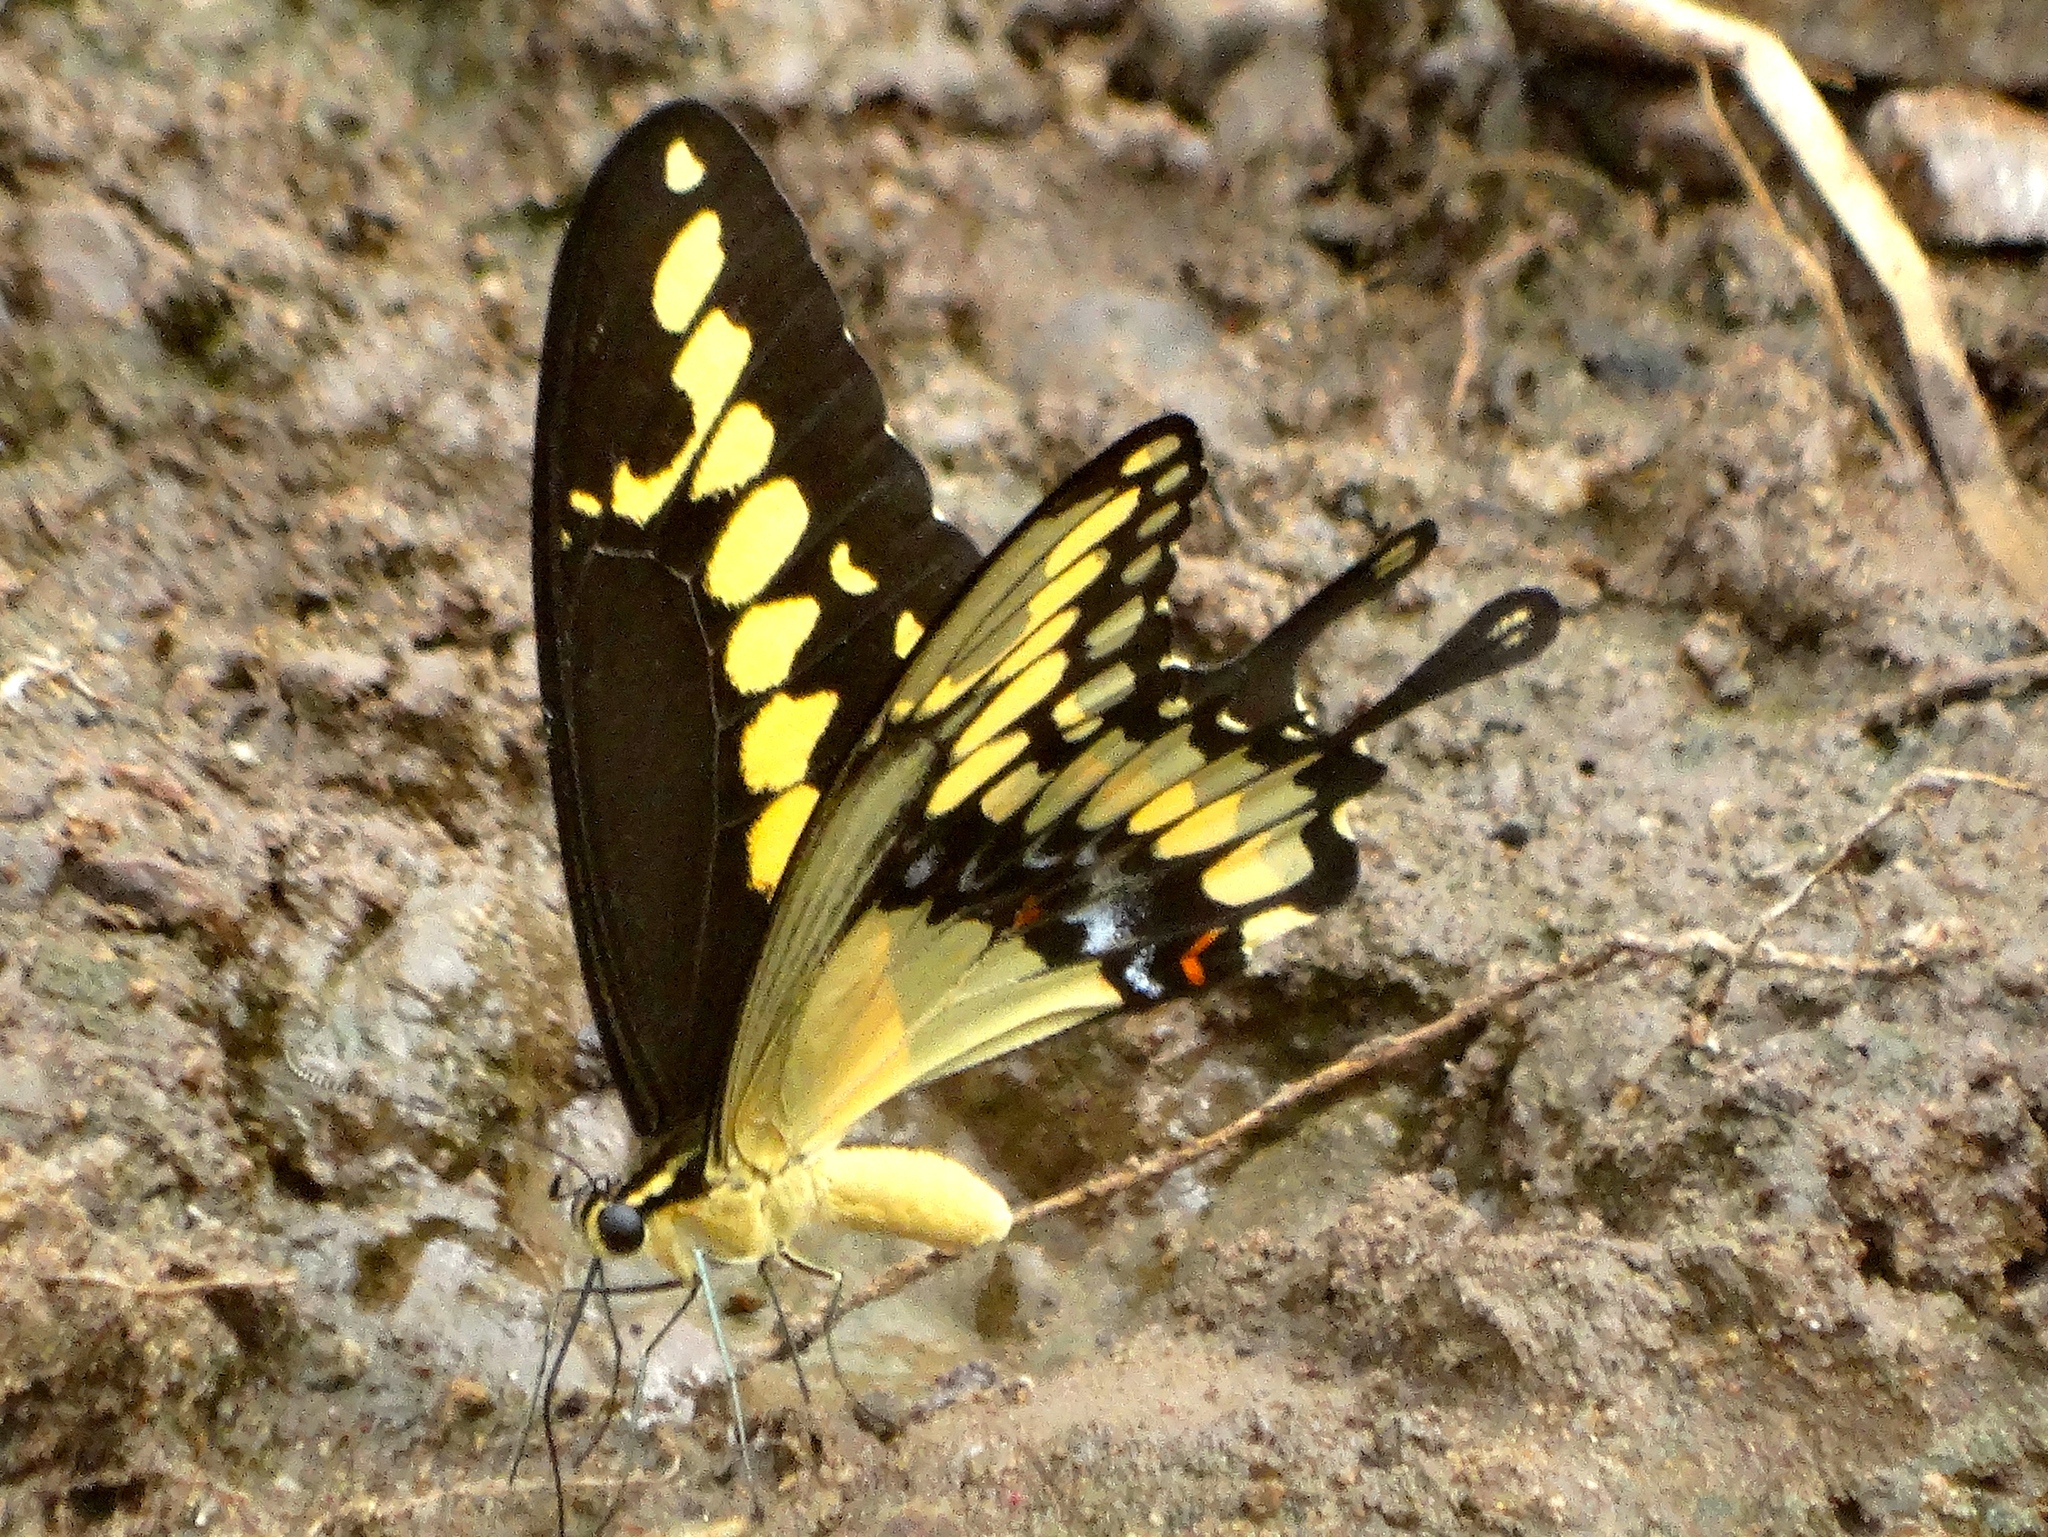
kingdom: Animalia
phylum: Arthropoda
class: Insecta
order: Lepidoptera
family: Papilionidae
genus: Papilio
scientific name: Papilio rumiko
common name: Western giant swallowtail
